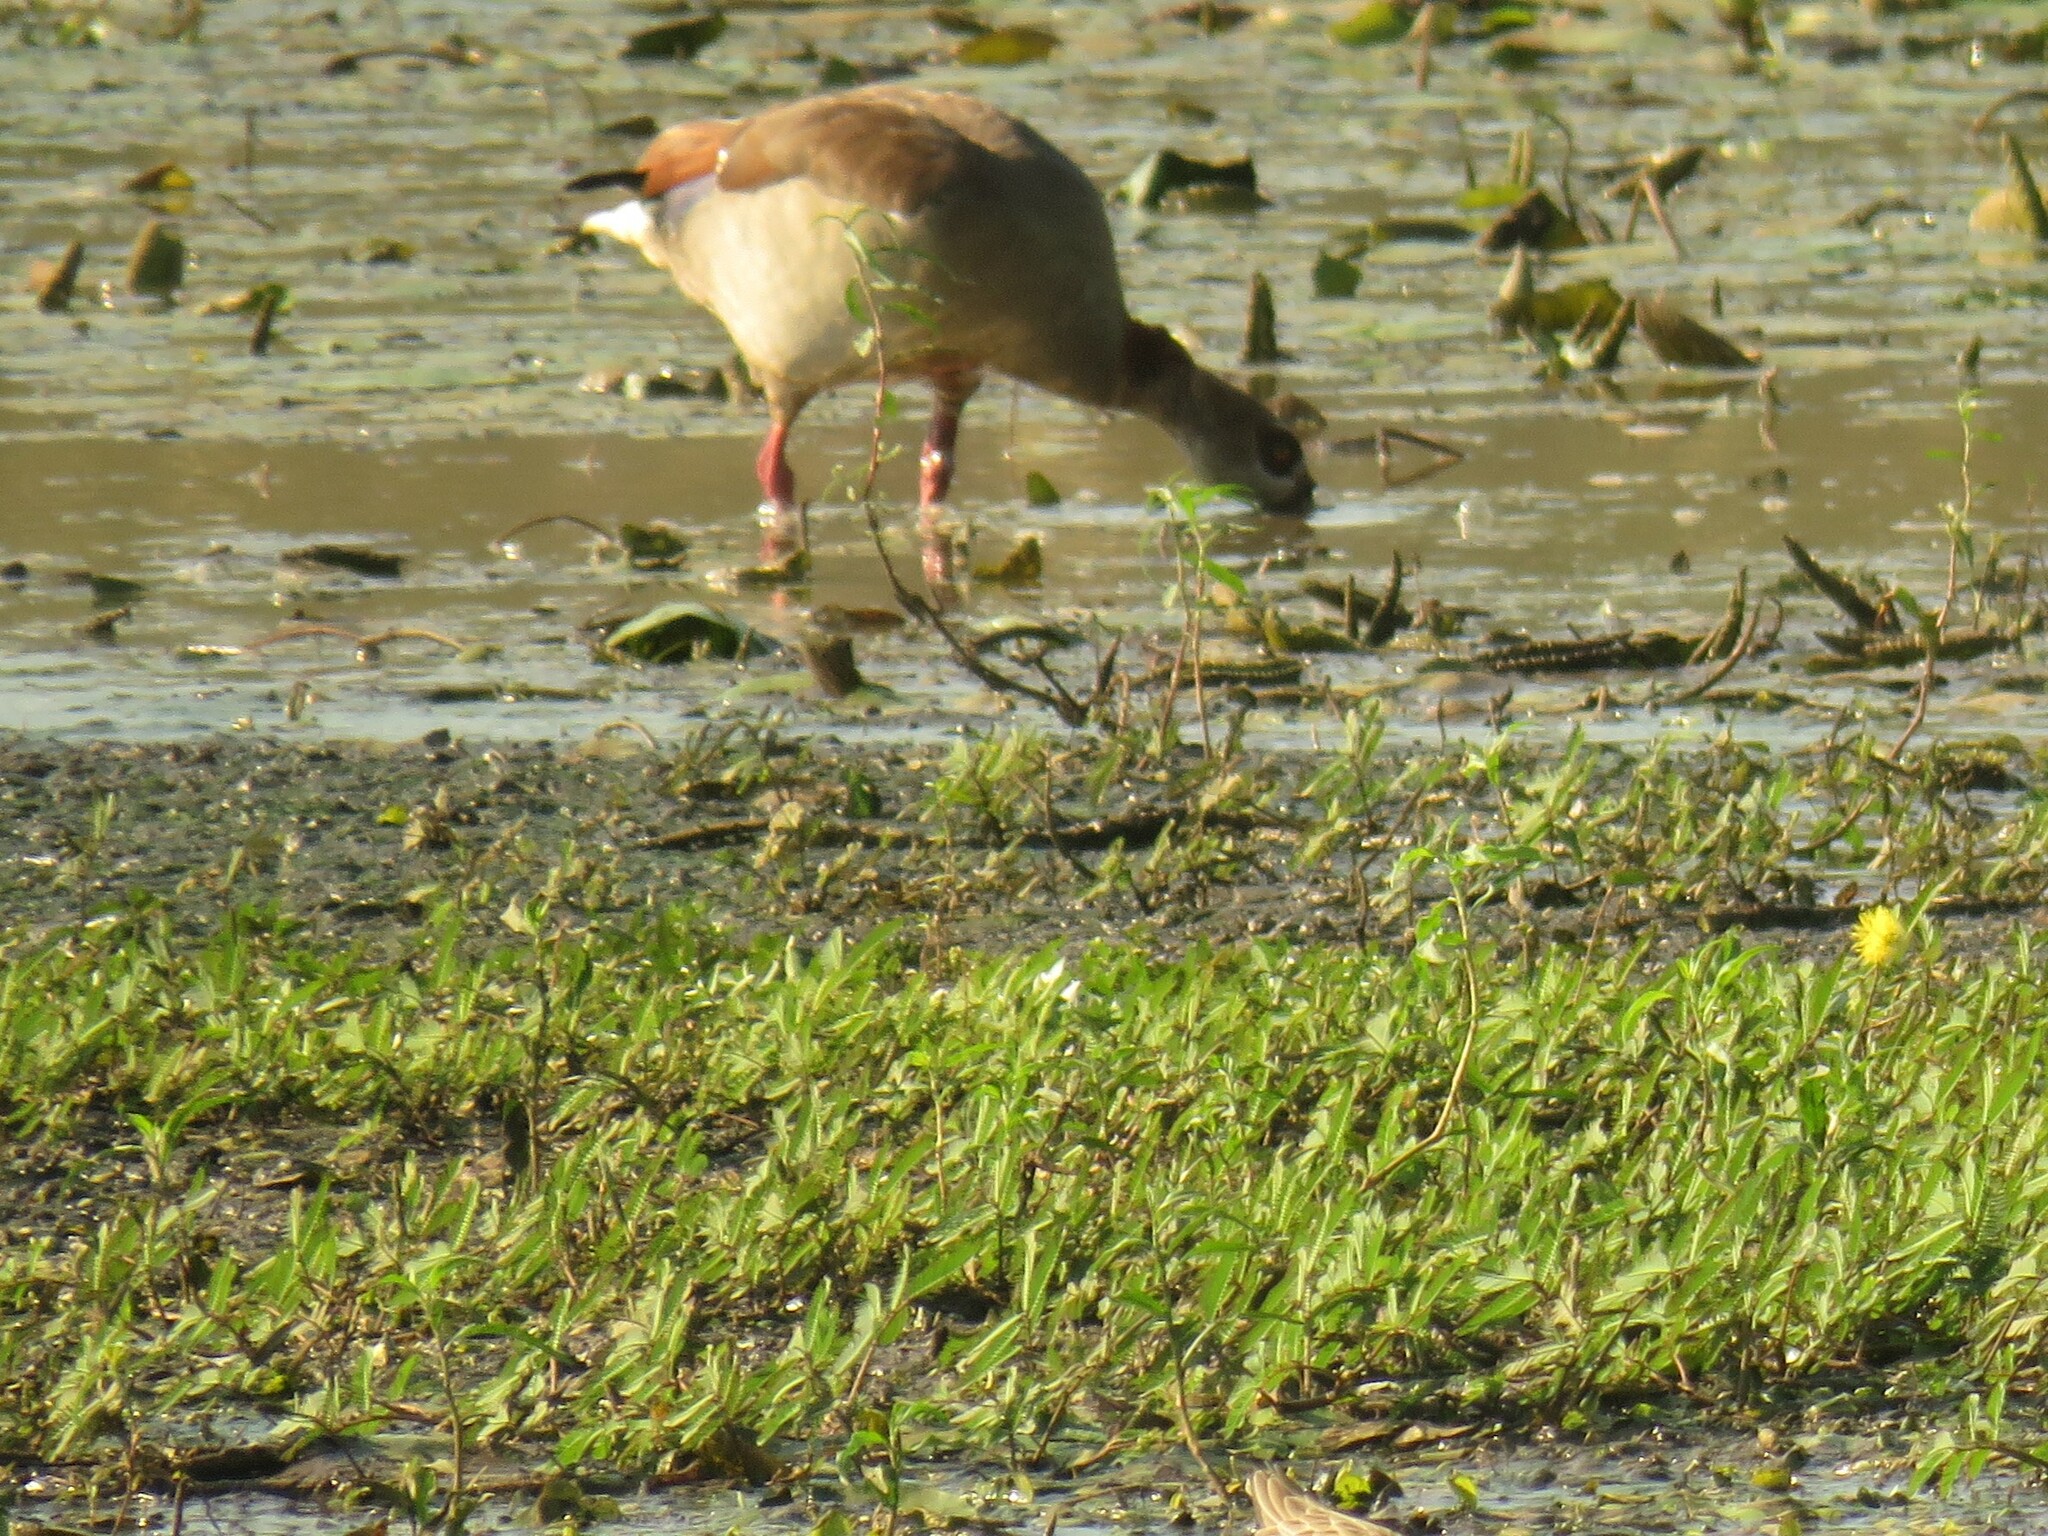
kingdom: Animalia
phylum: Chordata
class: Aves
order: Anseriformes
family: Anatidae
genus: Alopochen
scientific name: Alopochen aegyptiaca
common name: Egyptian goose
